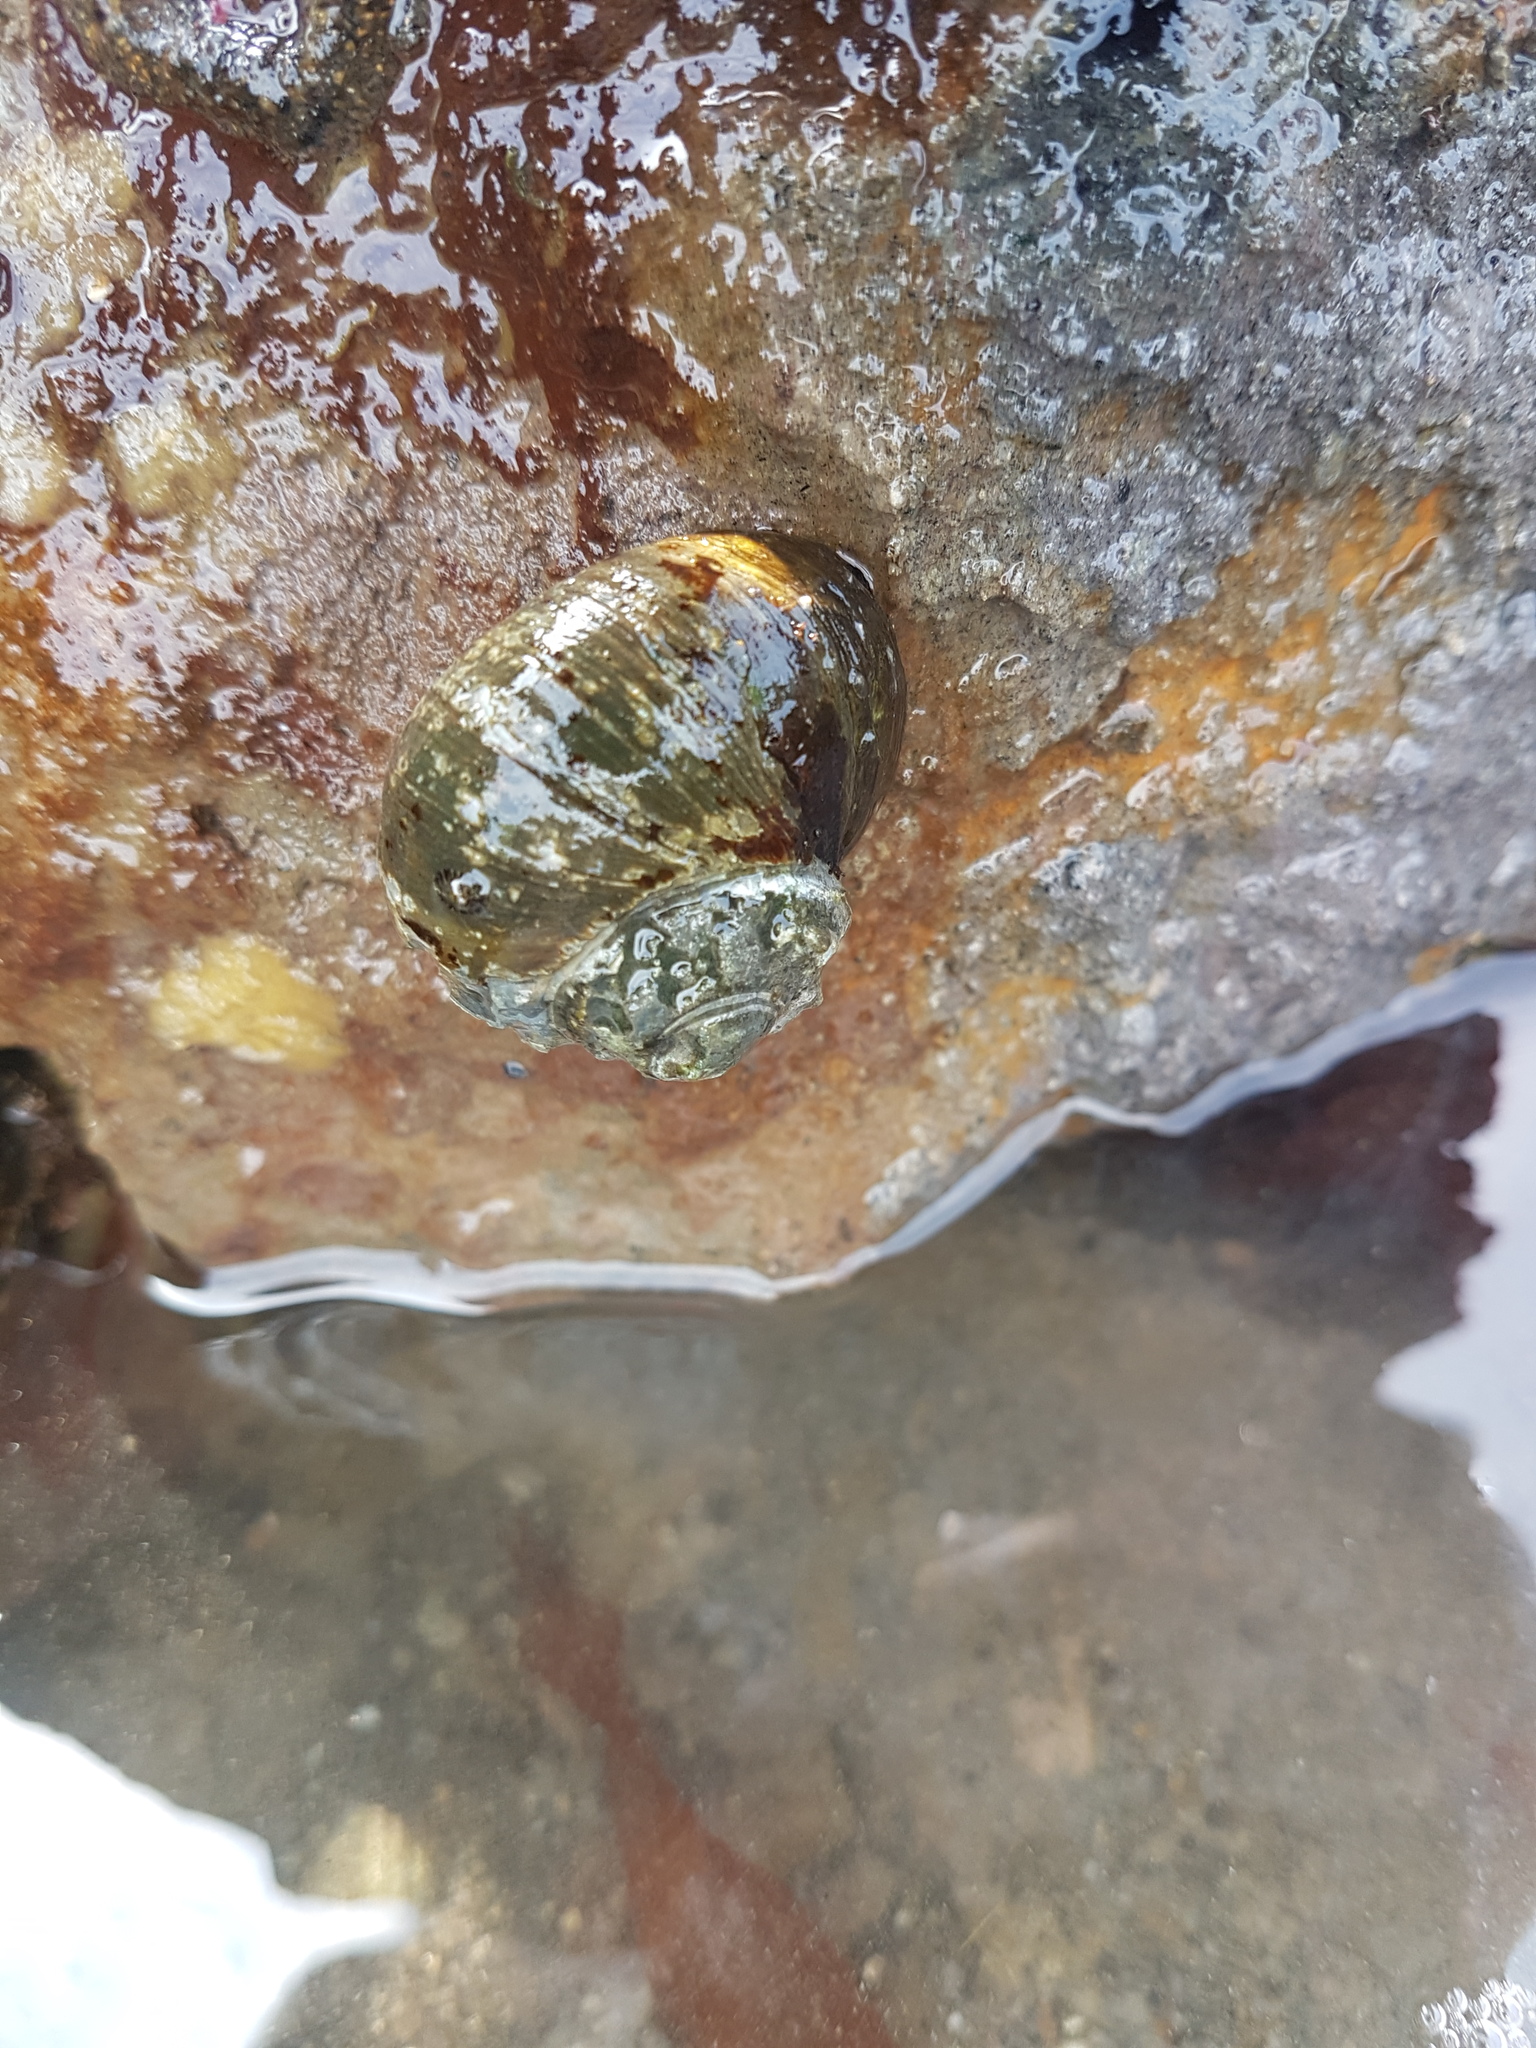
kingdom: Animalia
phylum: Mollusca
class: Gastropoda
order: Trochida
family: Turbinidae
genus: Lunella
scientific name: Lunella smaragda
